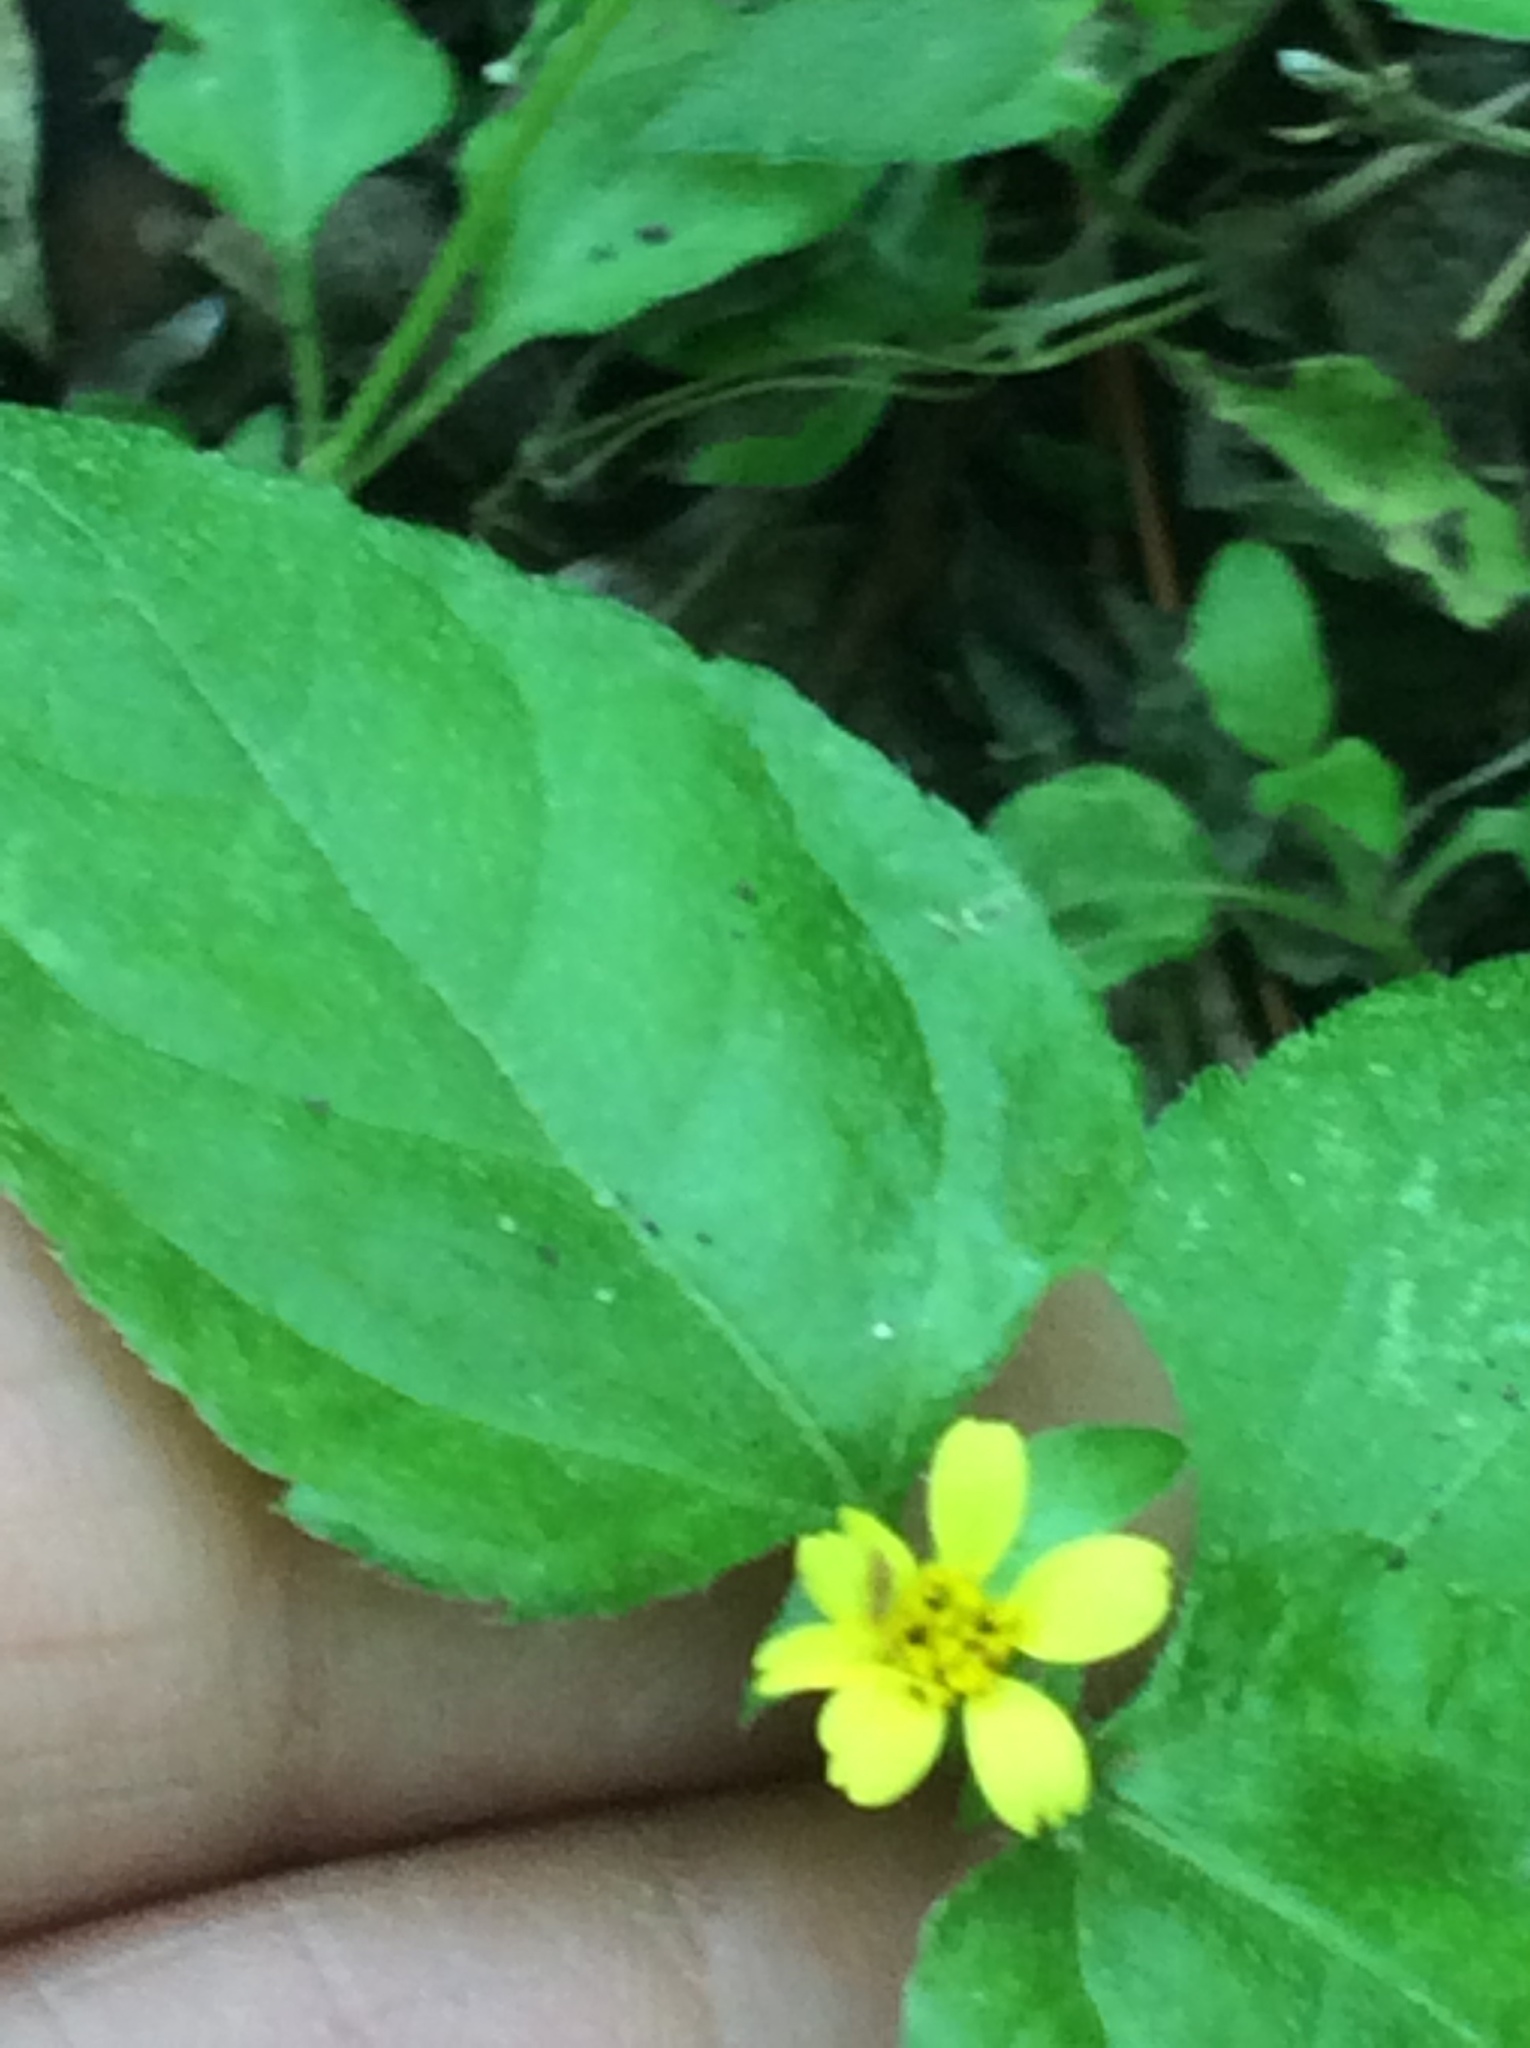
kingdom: Plantae
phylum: Tracheophyta
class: Magnoliopsida
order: Asterales
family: Asteraceae
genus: Calyptocarpus
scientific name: Calyptocarpus vialis
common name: Straggler daisy
